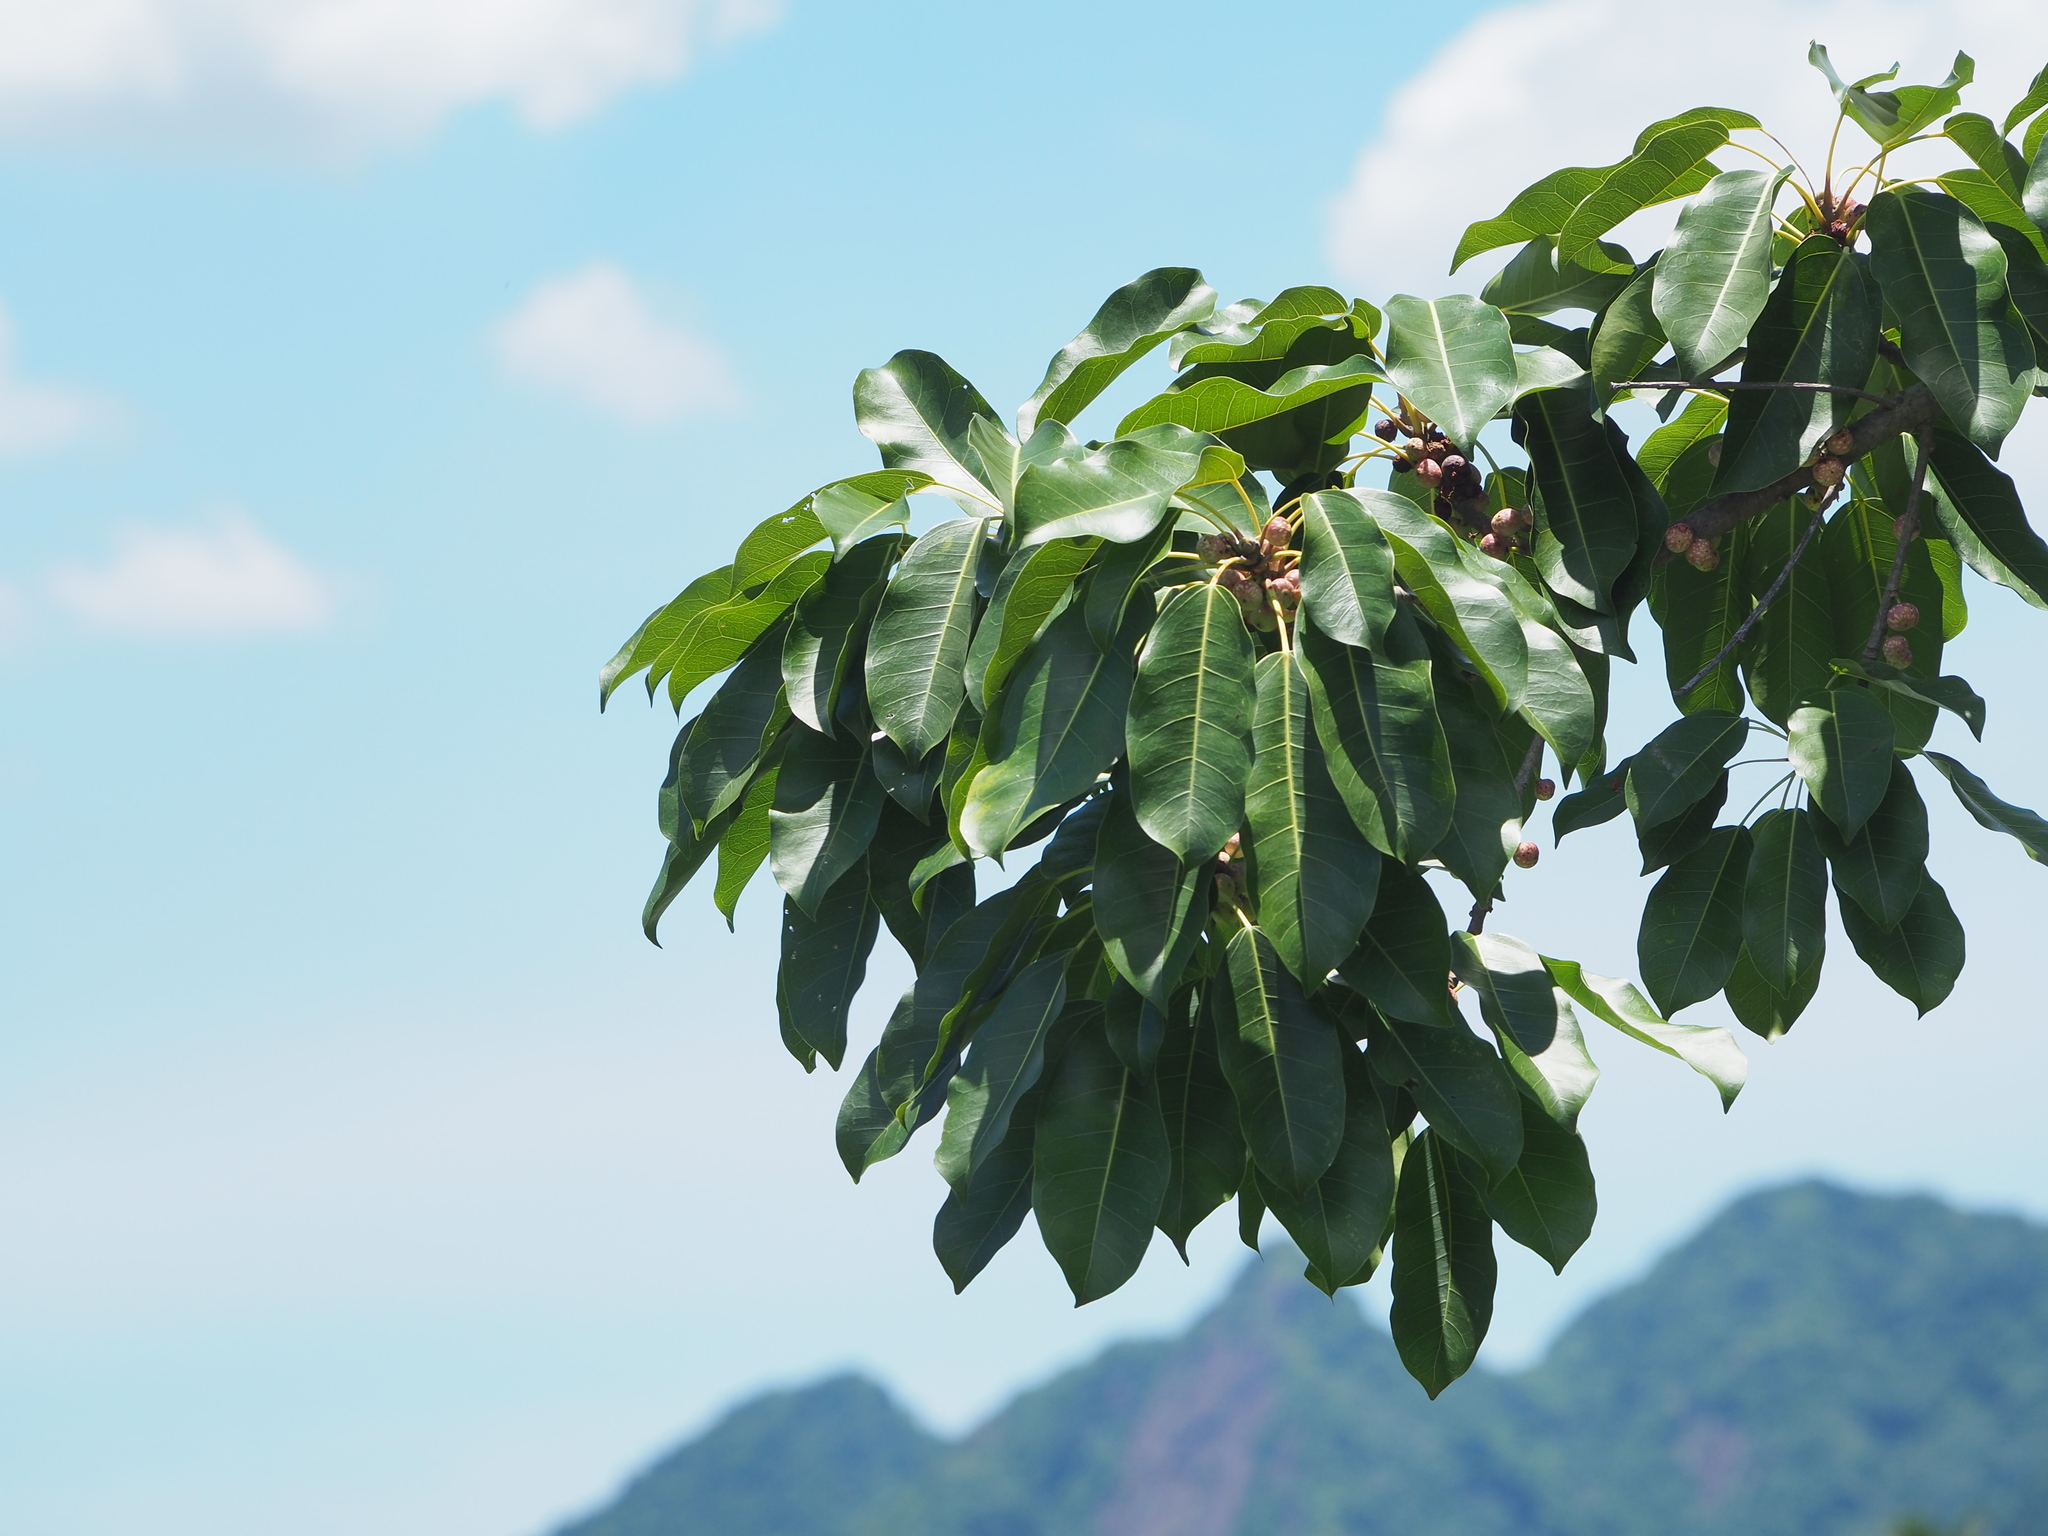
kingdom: Plantae
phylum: Tracheophyta
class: Magnoliopsida
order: Rosales
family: Moraceae
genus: Ficus
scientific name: Ficus subpisocarpa
